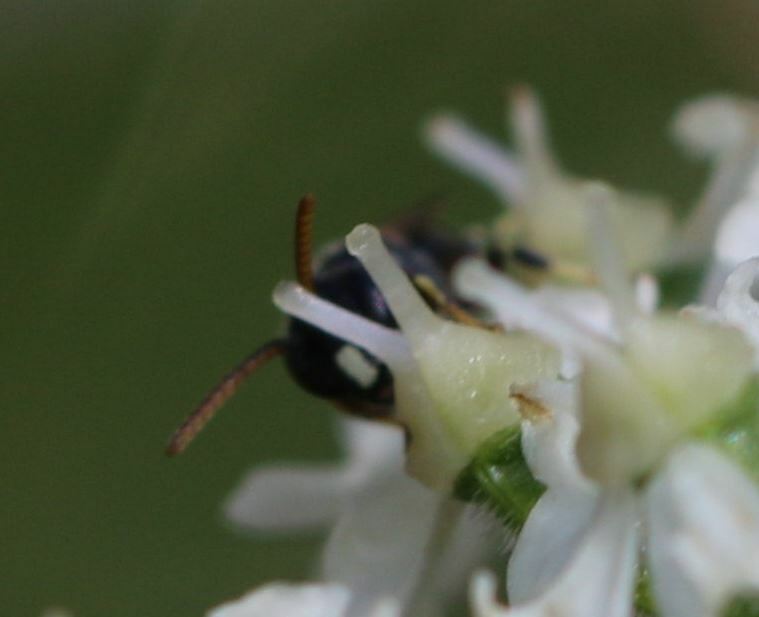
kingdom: Animalia
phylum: Arthropoda
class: Insecta
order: Hymenoptera
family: Colletidae
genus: Hylaeus
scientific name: Hylaeus punctatus
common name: Punctate masked bee
